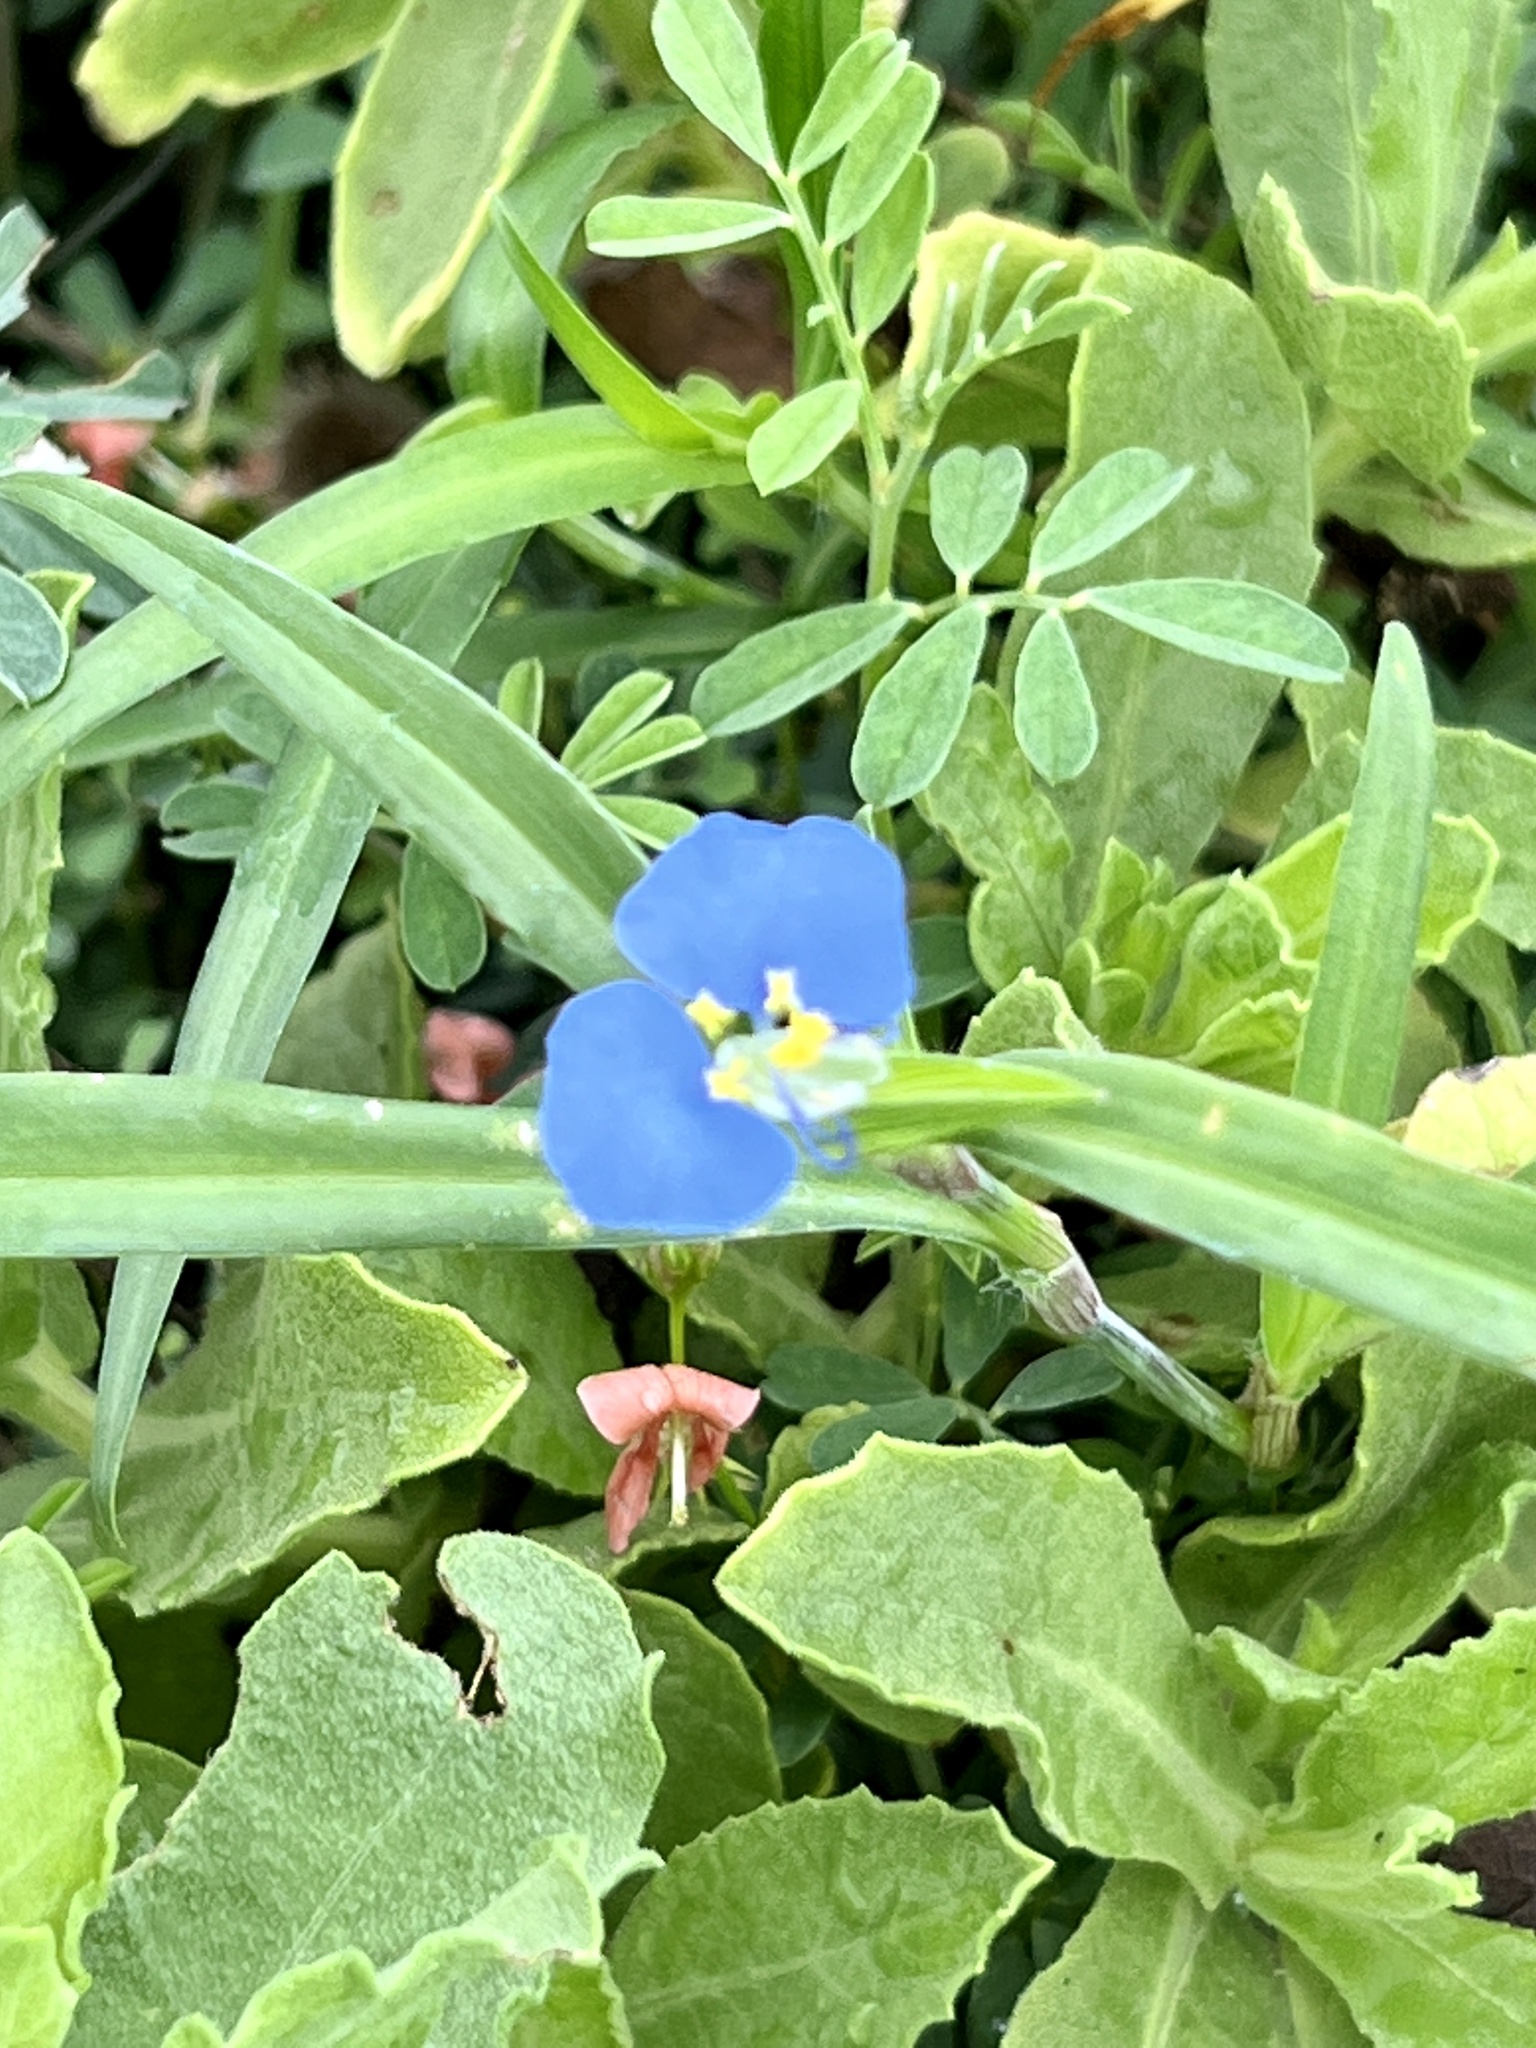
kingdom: Plantae
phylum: Tracheophyta
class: Liliopsida
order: Commelinales
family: Commelinaceae
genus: Commelina
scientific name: Commelina erecta
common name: Blousel blommetjie
